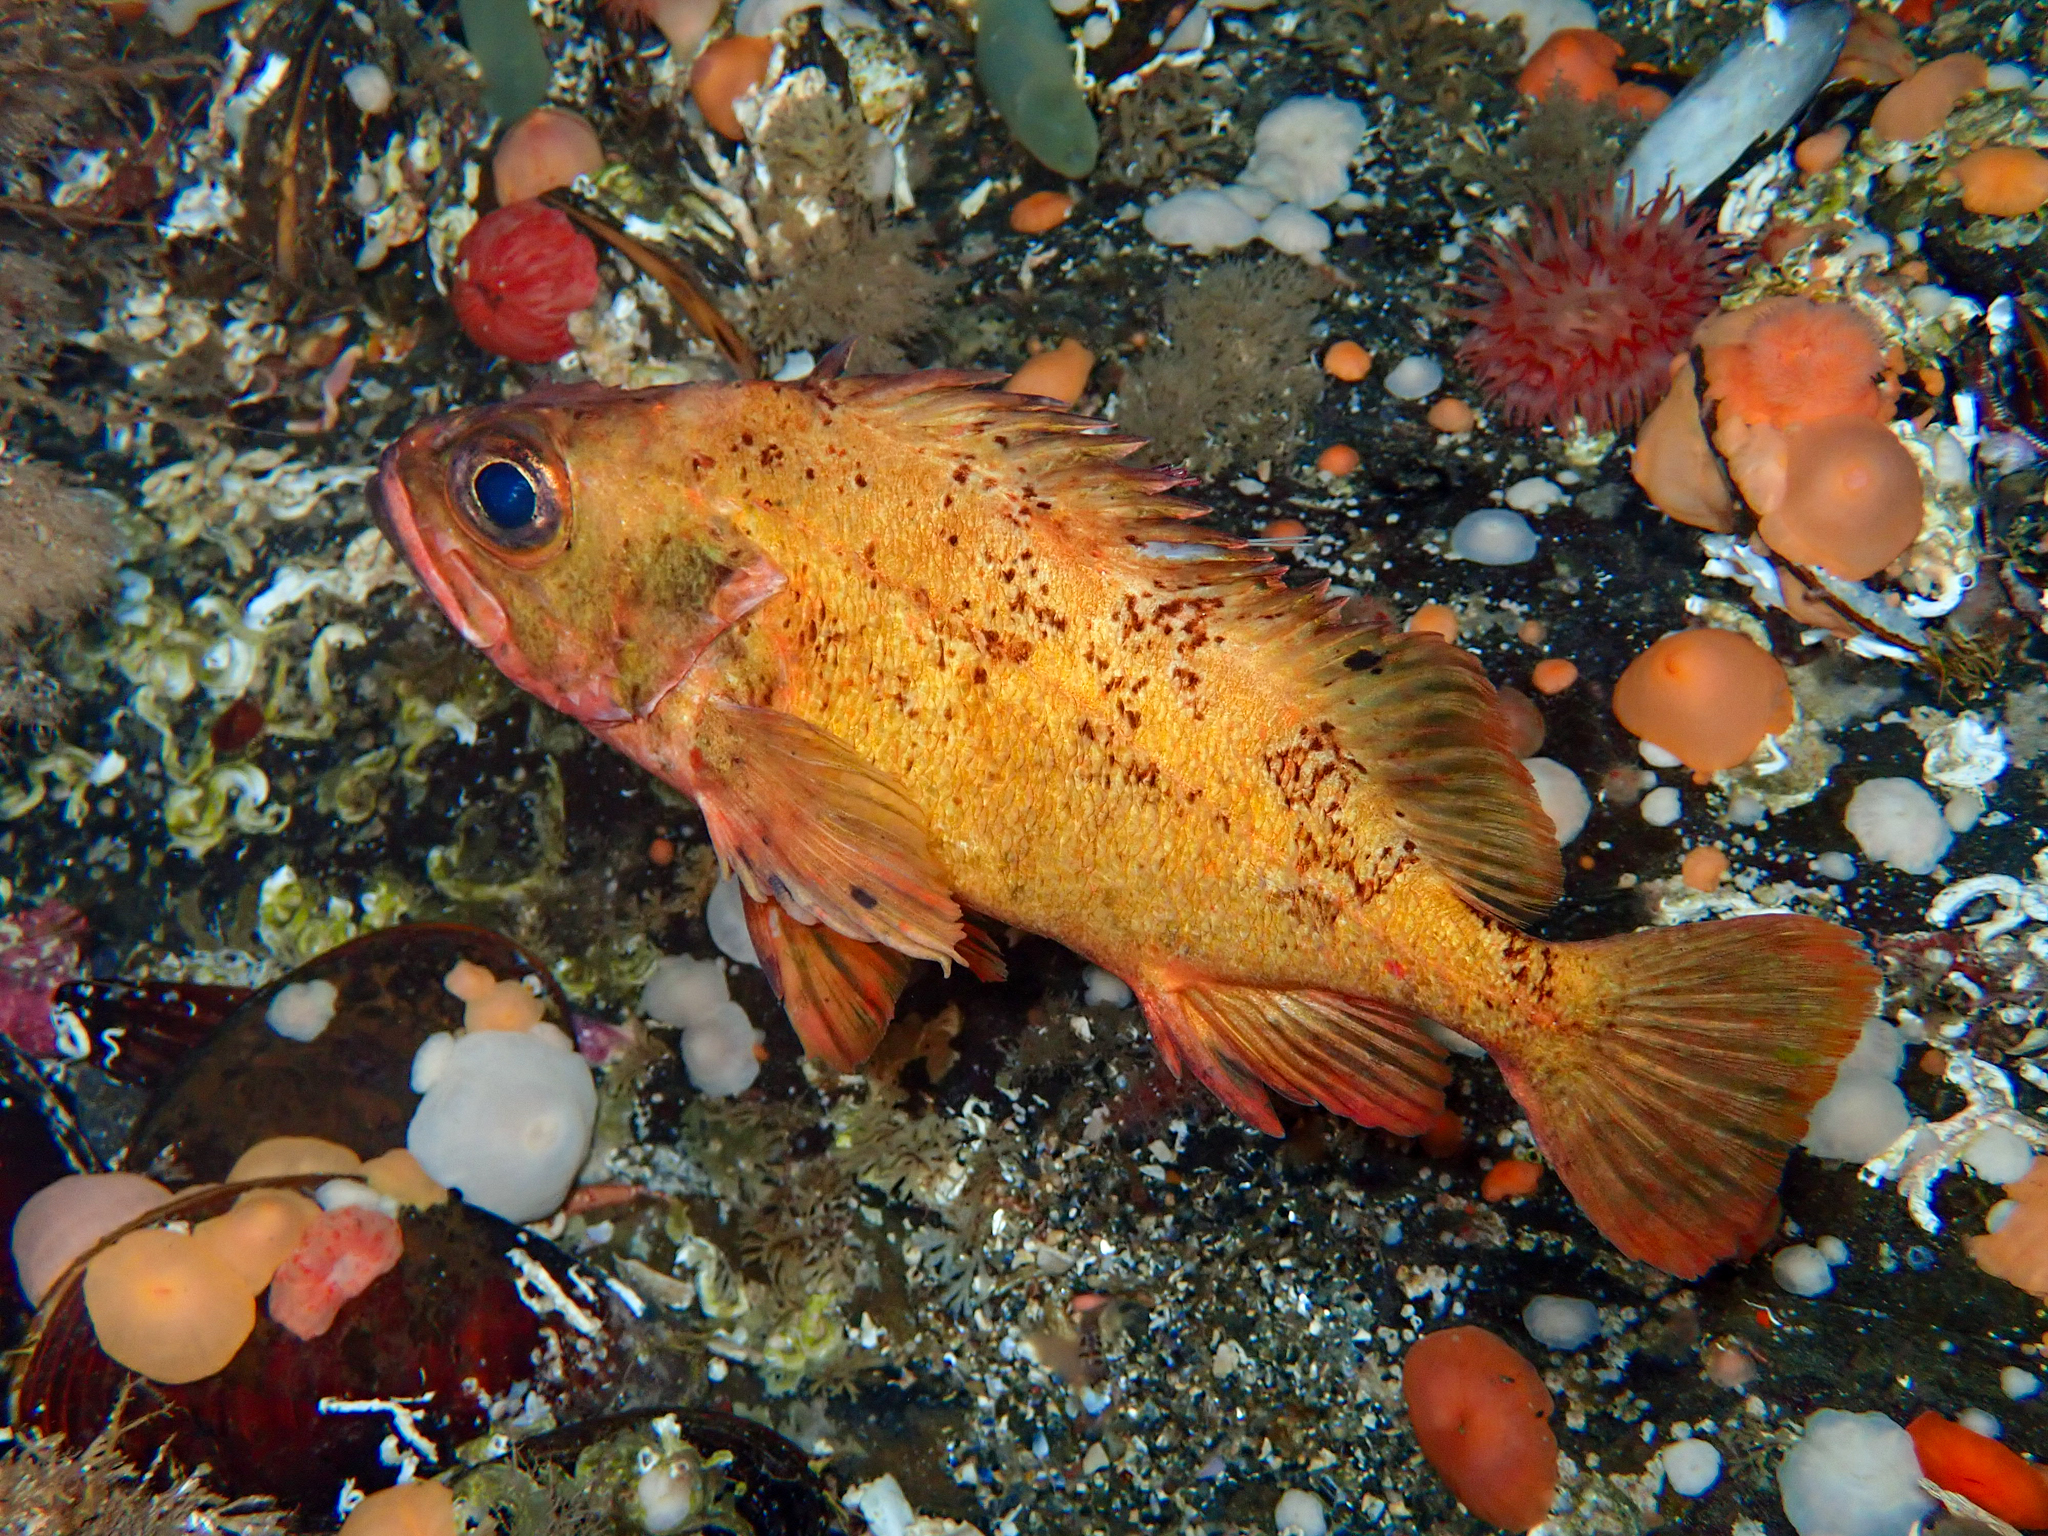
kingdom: Animalia
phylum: Chordata
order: Scorpaeniformes
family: Sebastidae
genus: Sebastes
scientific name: Sebastes viviparus
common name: Norway haddock
